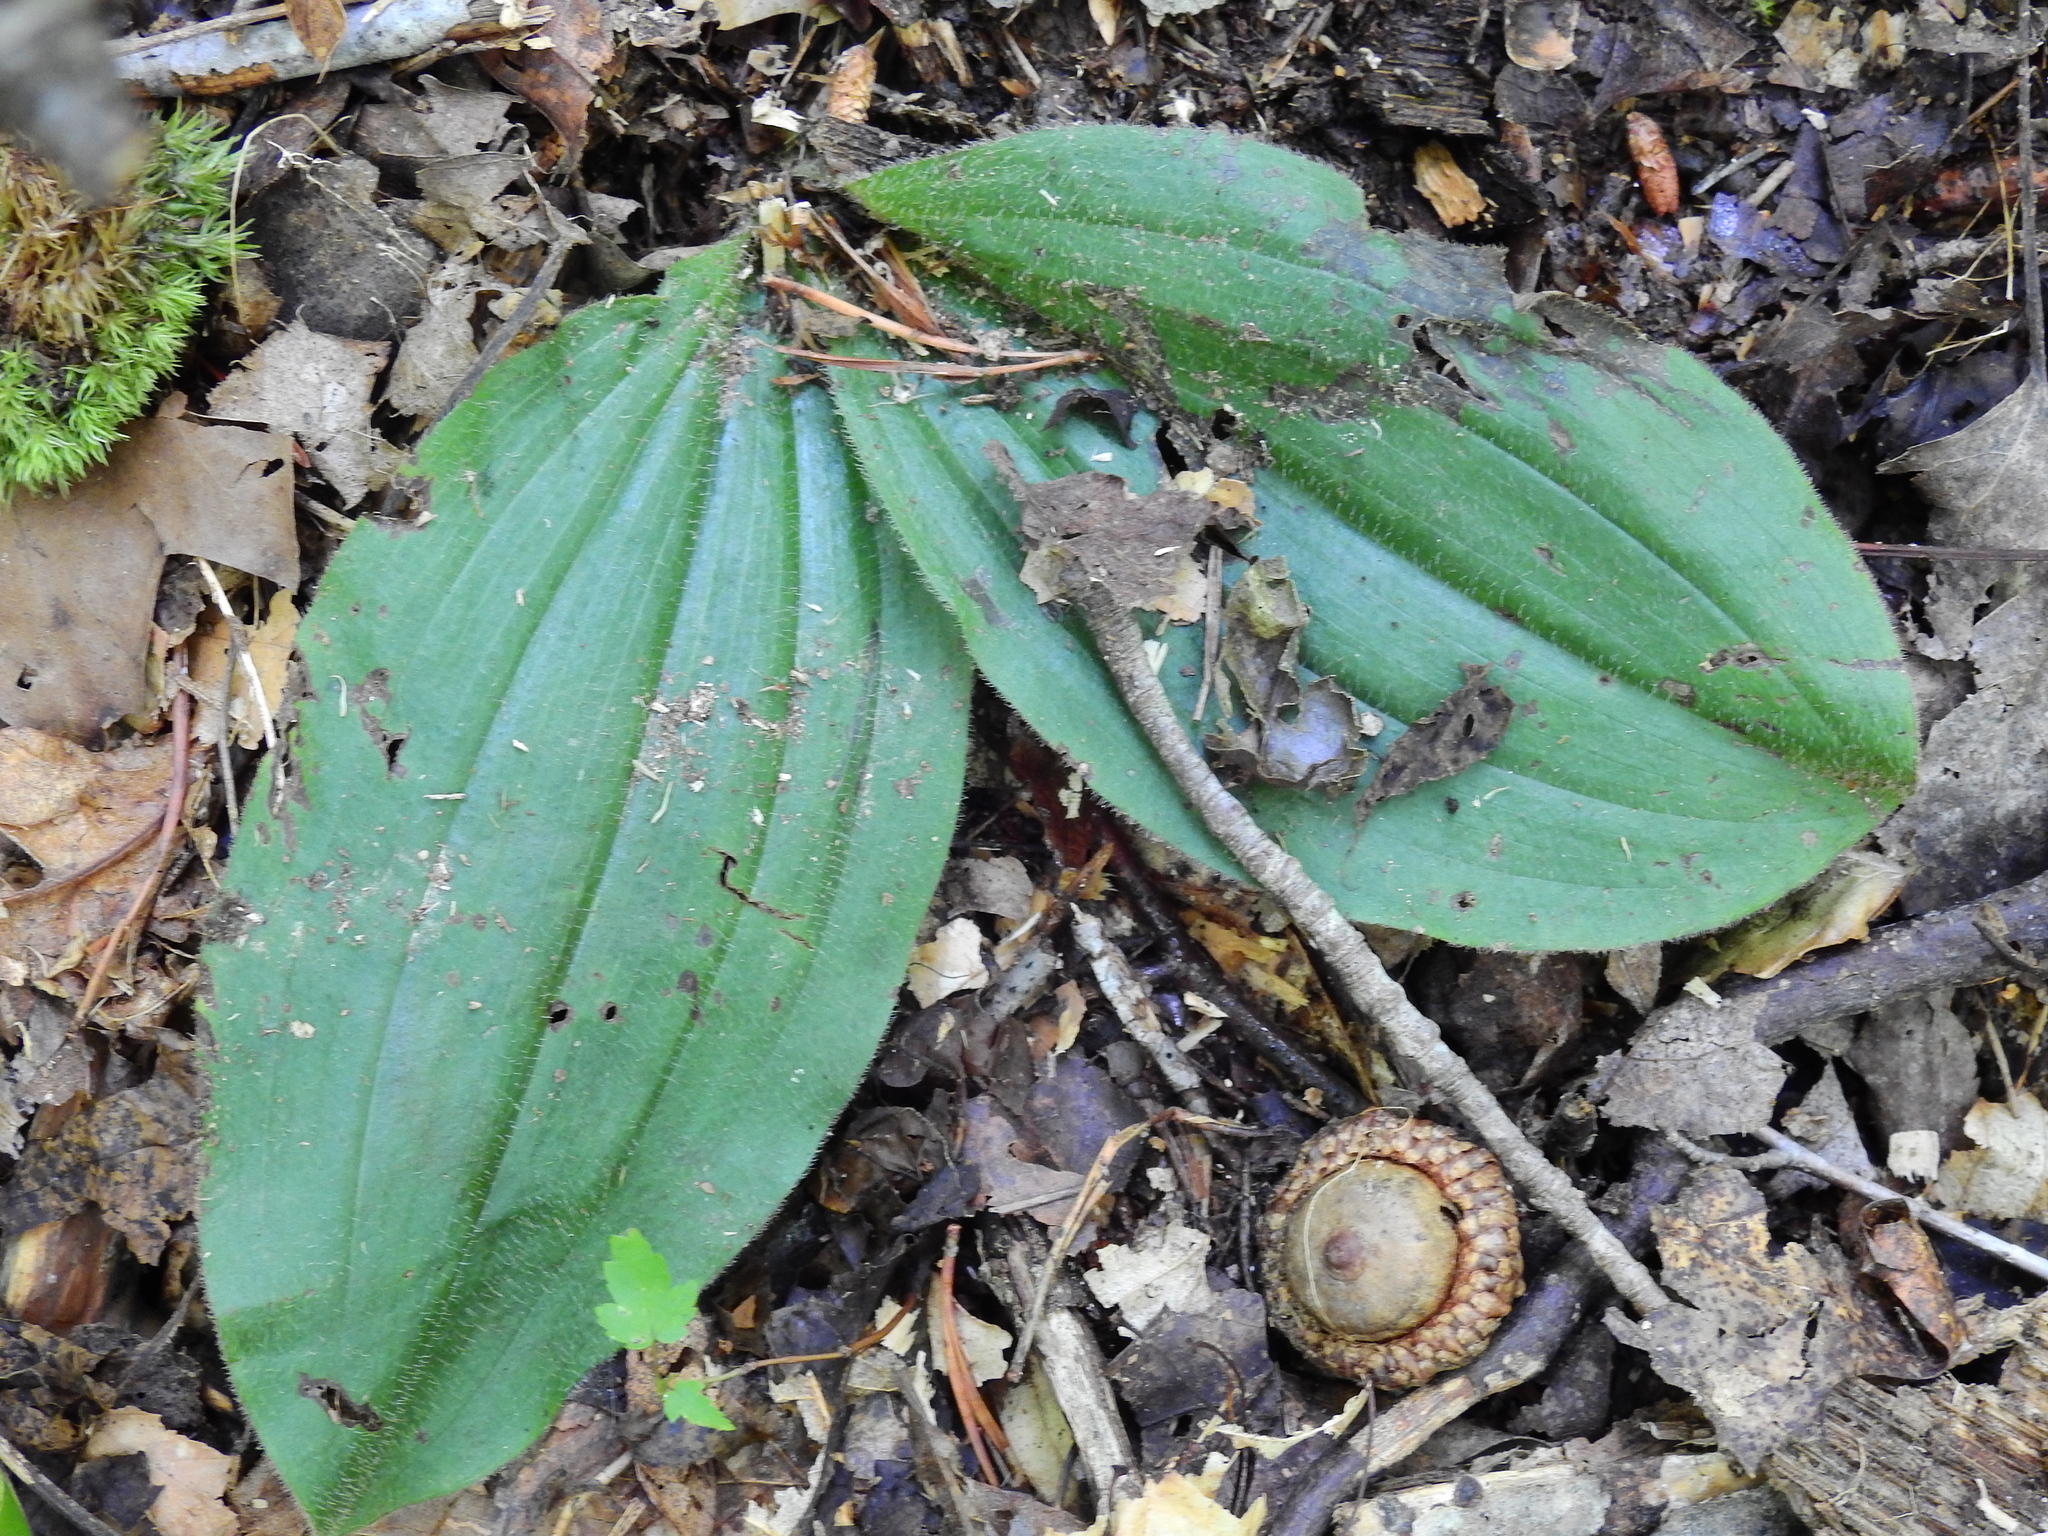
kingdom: Plantae
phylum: Tracheophyta
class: Liliopsida
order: Asparagales
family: Orchidaceae
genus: Cypripedium
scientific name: Cypripedium acaule
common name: Pink lady's-slipper
